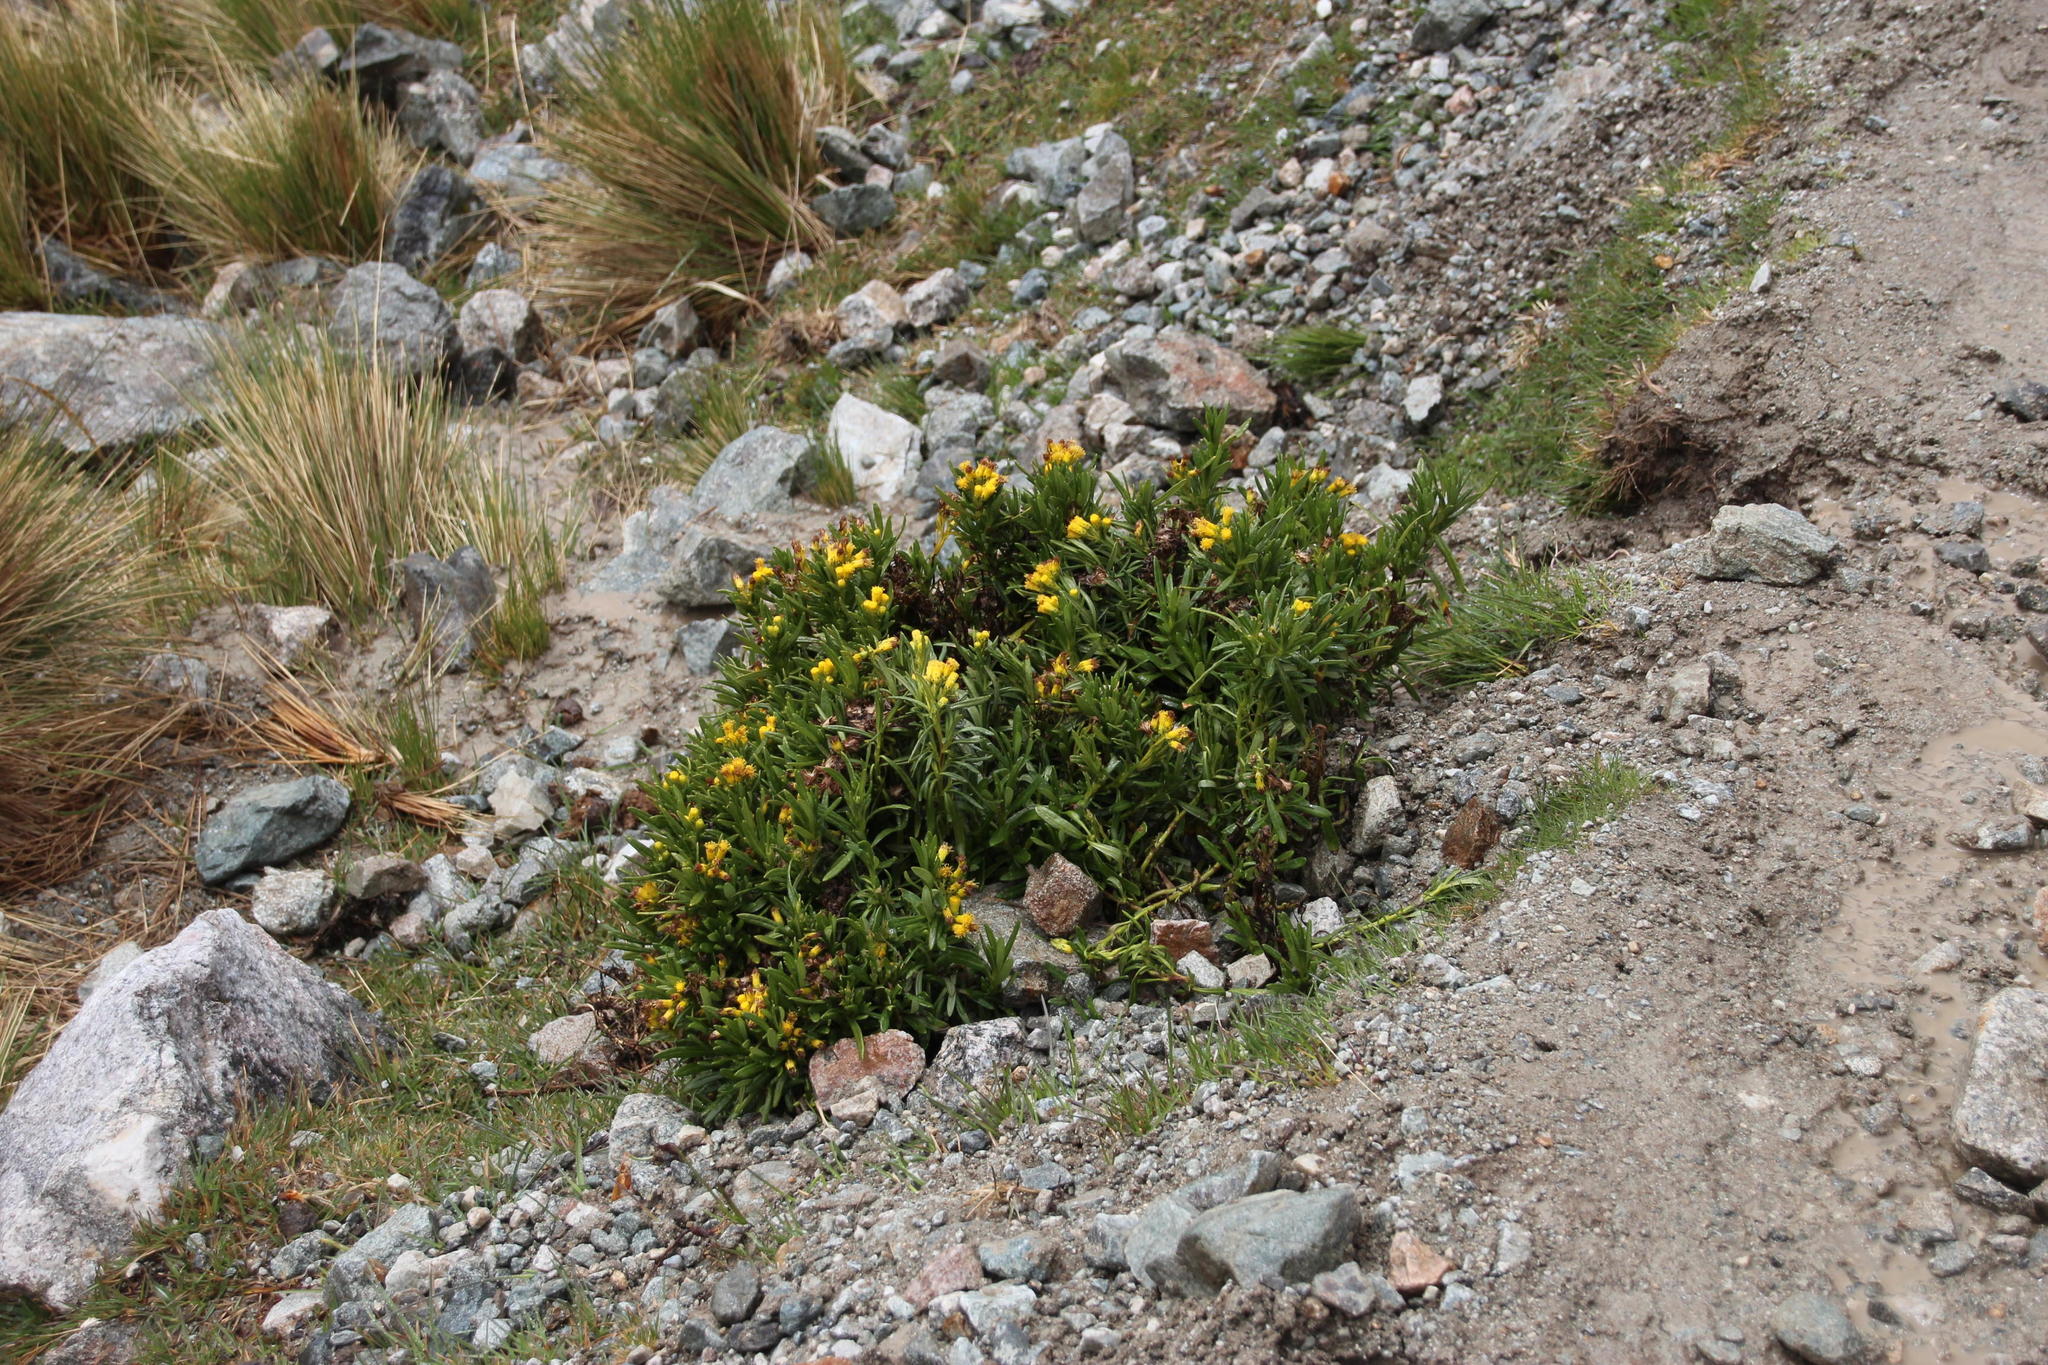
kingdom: Plantae
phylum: Tracheophyta
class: Magnoliopsida
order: Asterales
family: Asteraceae
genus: Senecio
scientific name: Senecio adenophyllus
